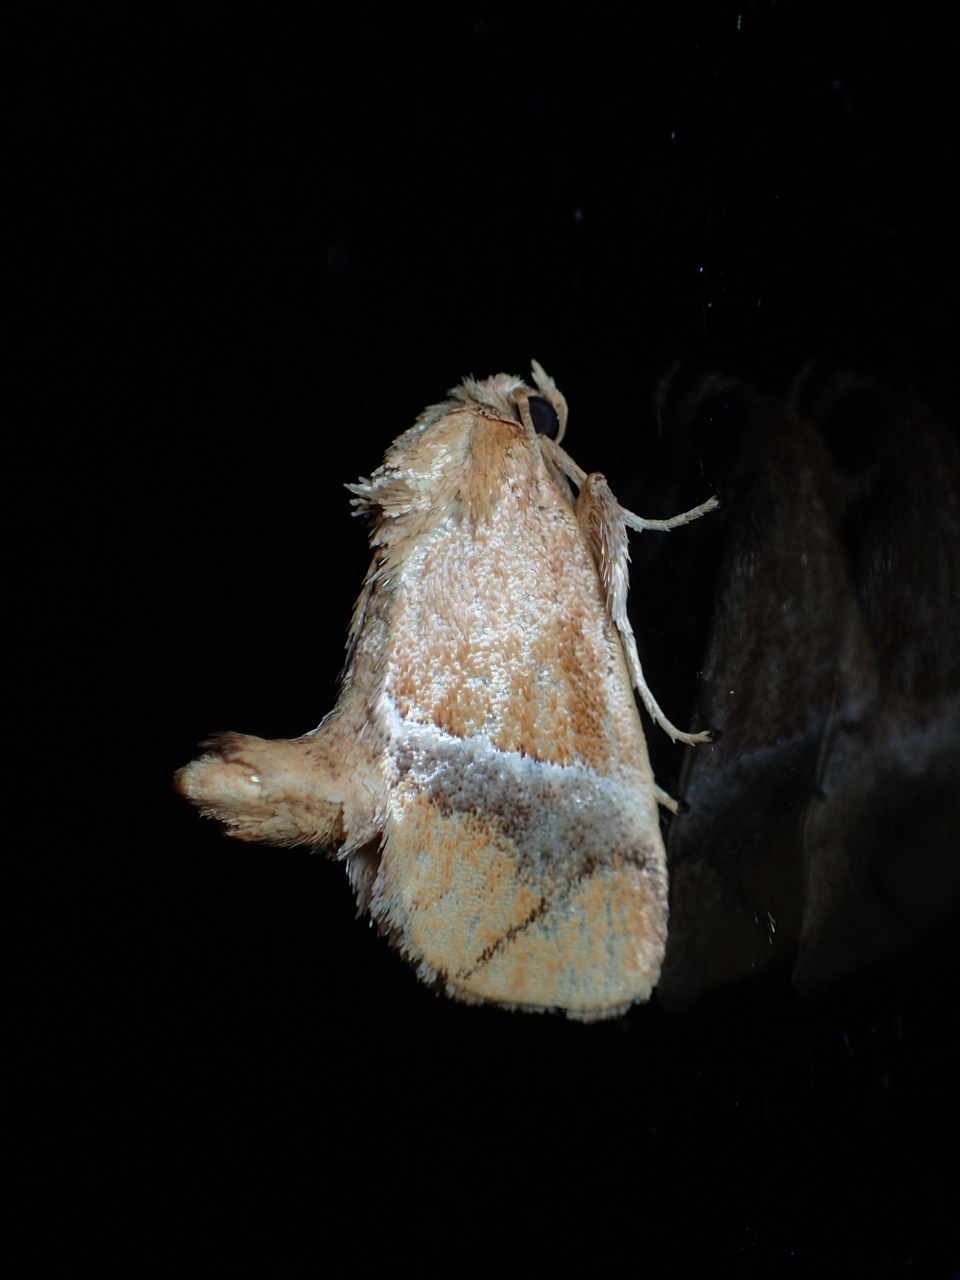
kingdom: Animalia
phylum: Arthropoda
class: Insecta
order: Lepidoptera
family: Limacodidae
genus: Lithacodes
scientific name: Lithacodes fasciola
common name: Yellow-shouldered slug moth
